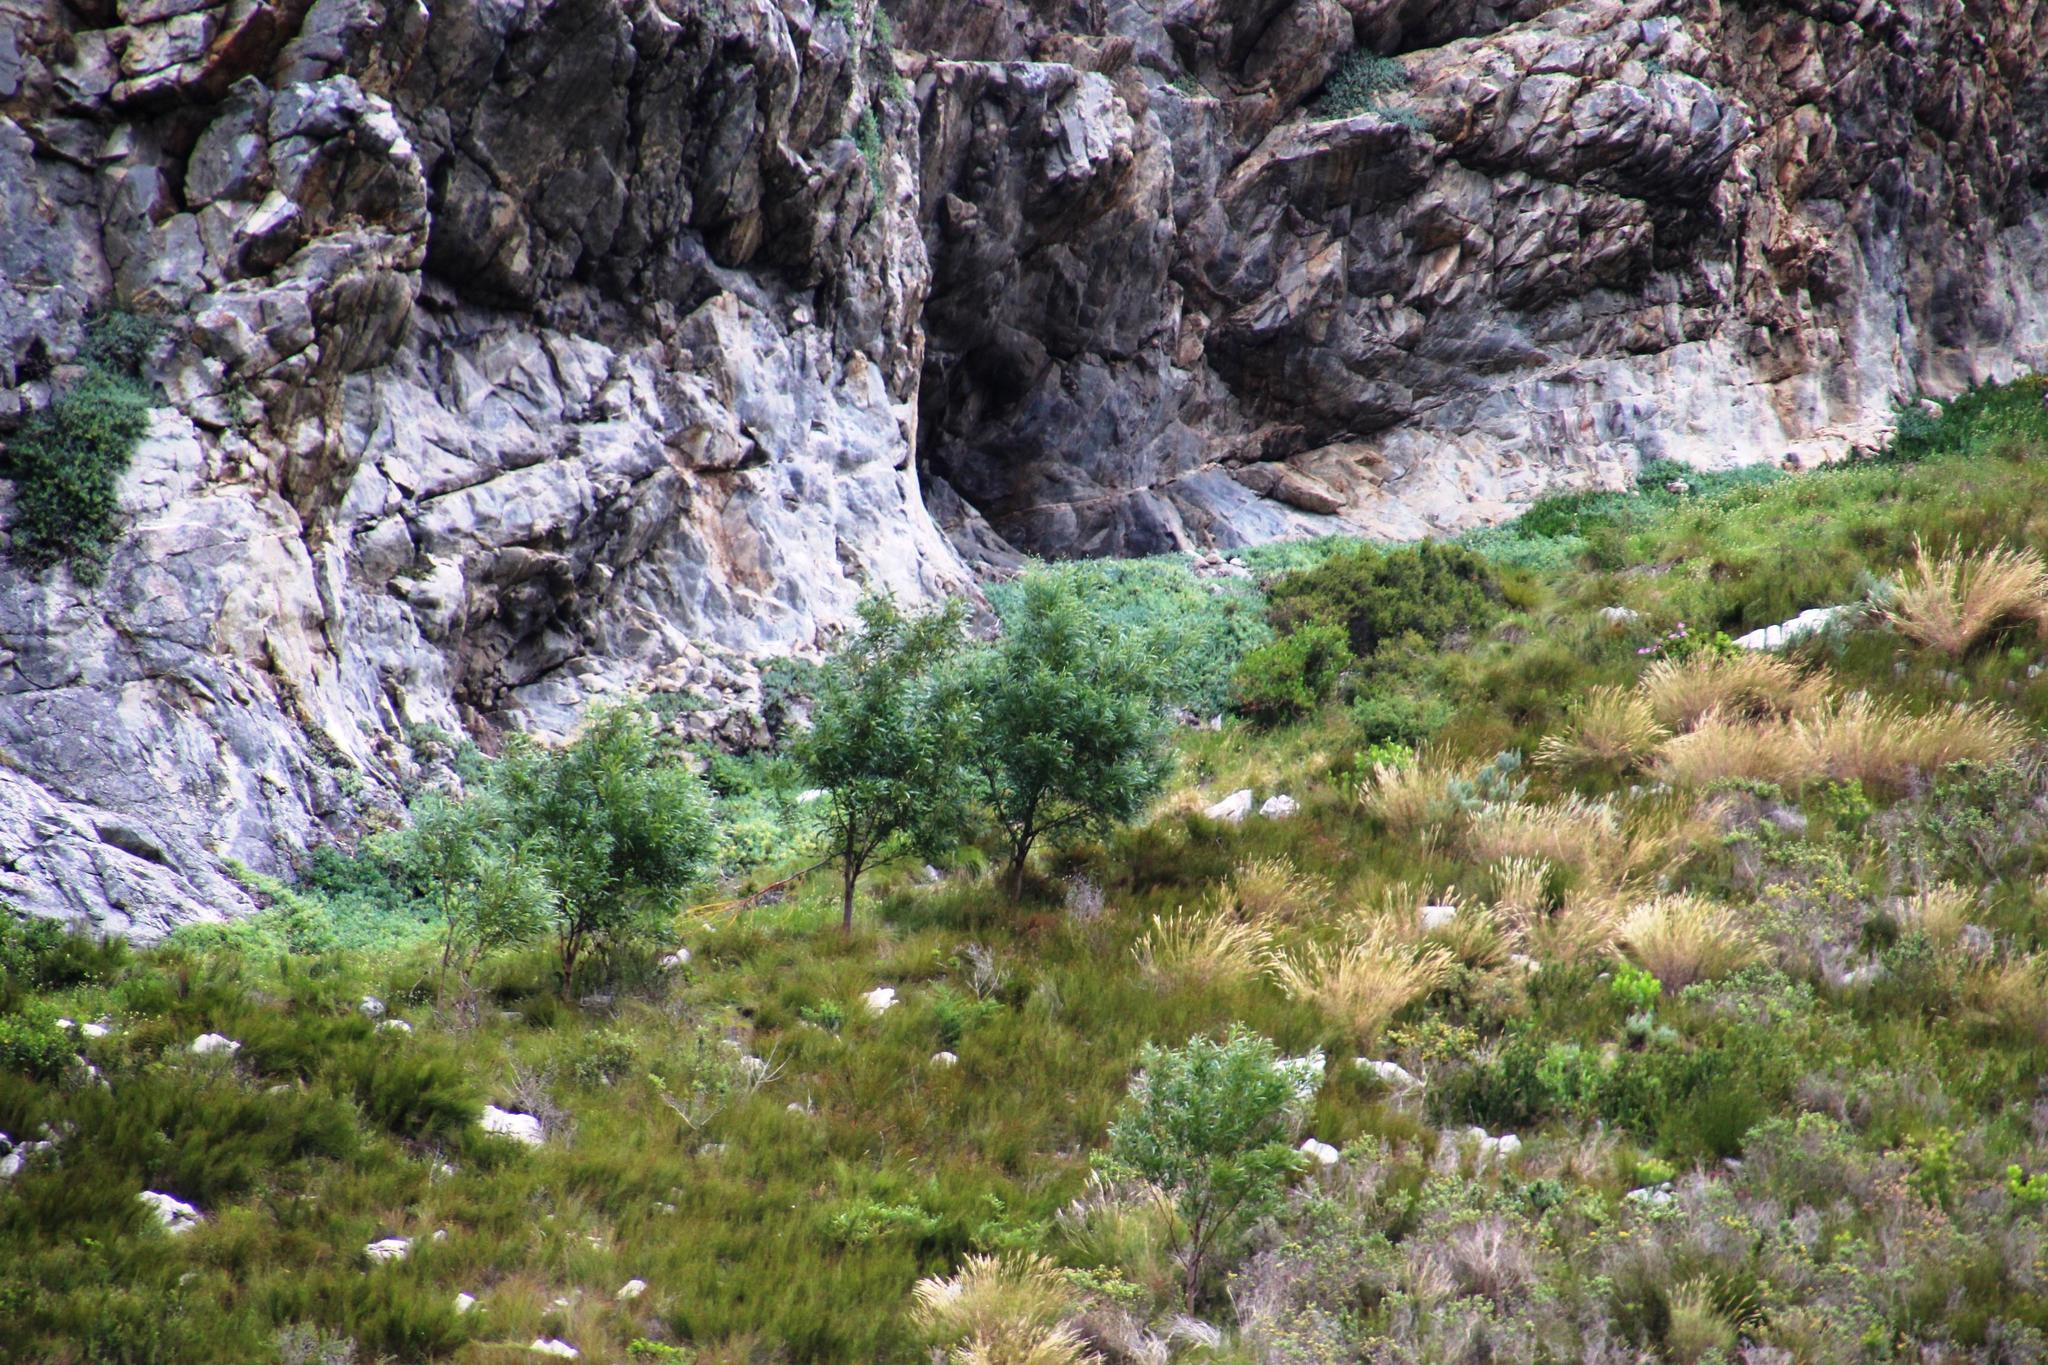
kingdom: Plantae
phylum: Tracheophyta
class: Magnoliopsida
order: Fabales
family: Fabaceae
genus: Acacia
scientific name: Acacia saligna
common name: Orange wattle
